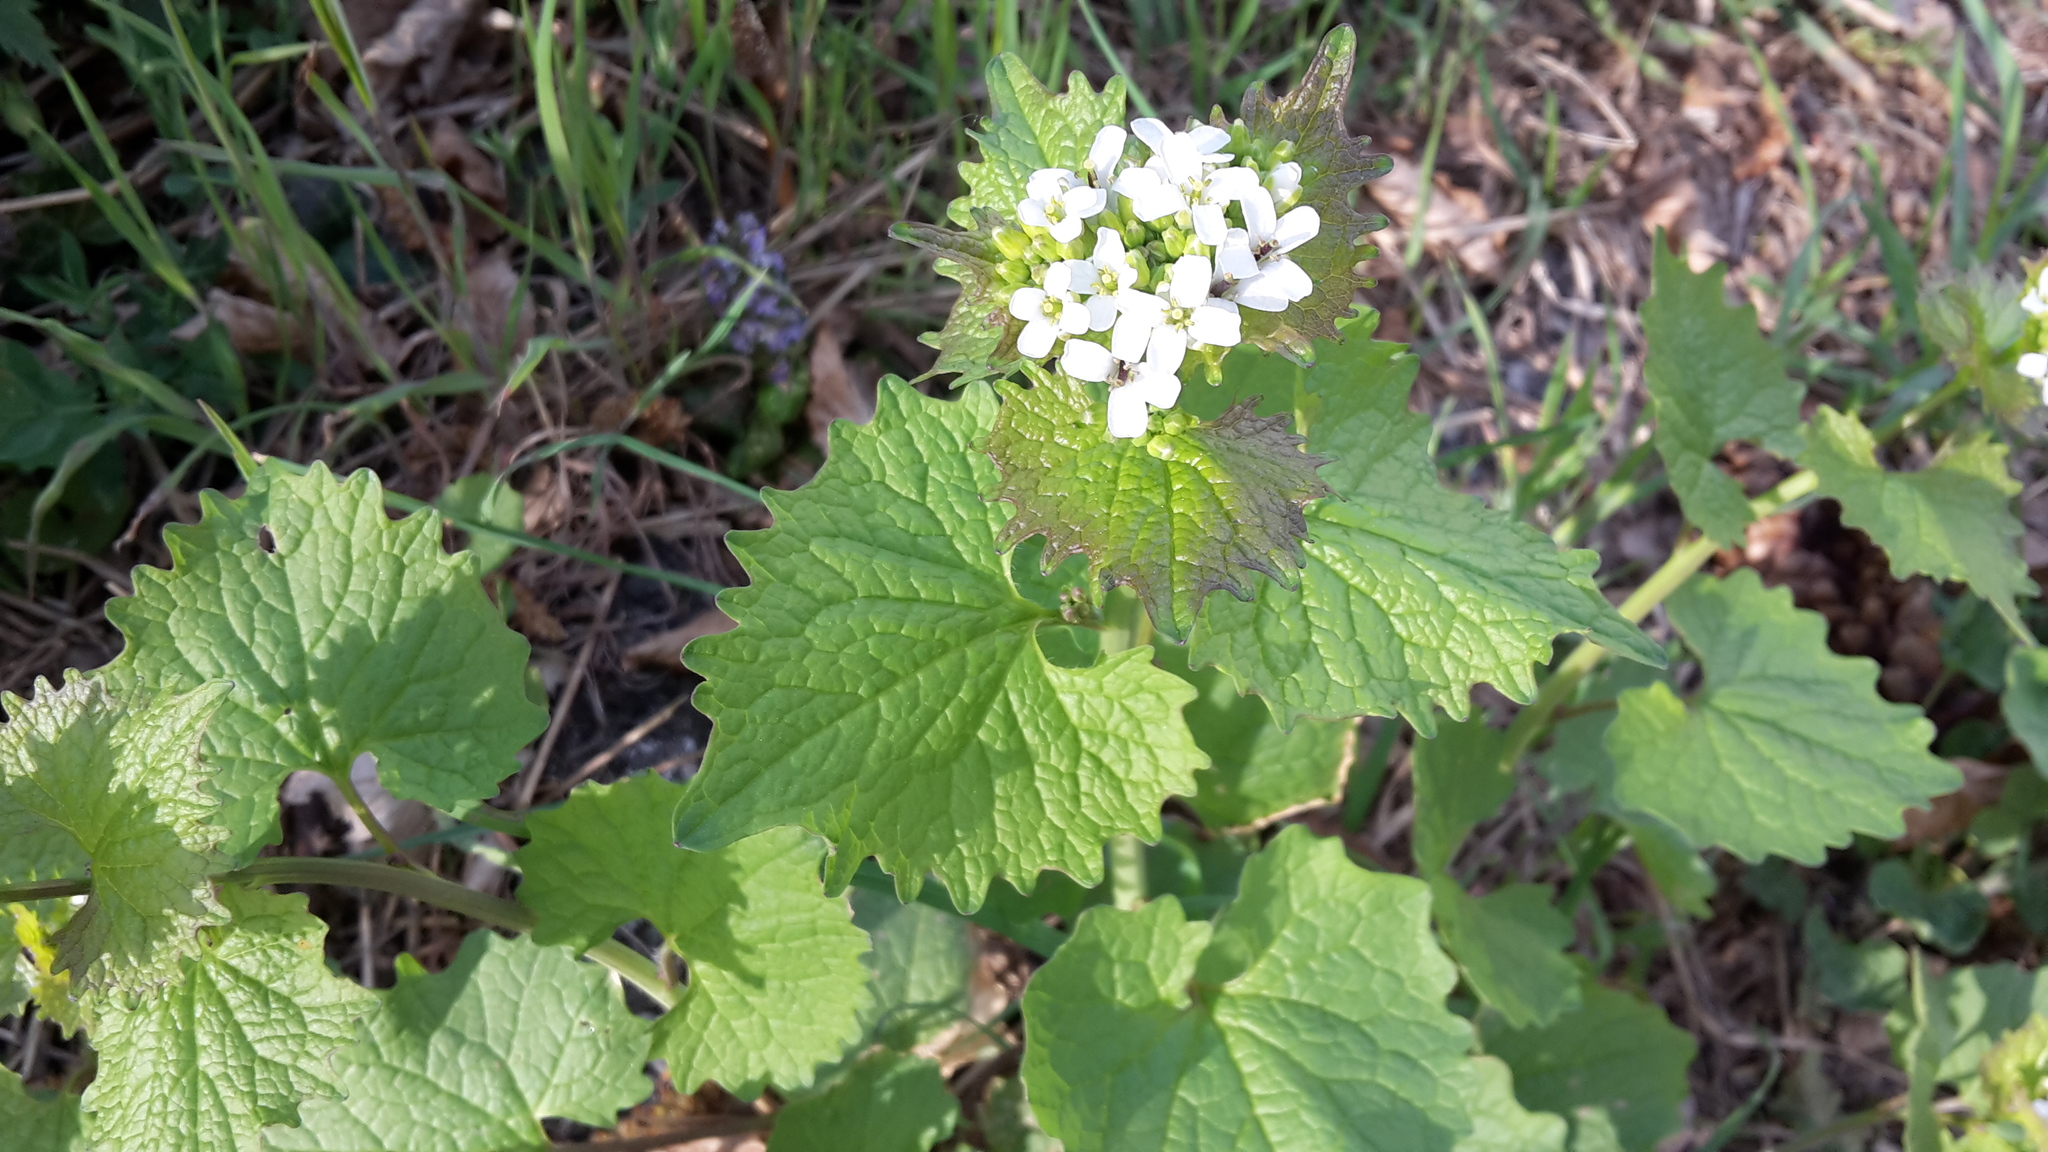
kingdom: Plantae
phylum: Tracheophyta
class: Magnoliopsida
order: Brassicales
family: Brassicaceae
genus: Alliaria
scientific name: Alliaria petiolata
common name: Garlic mustard
